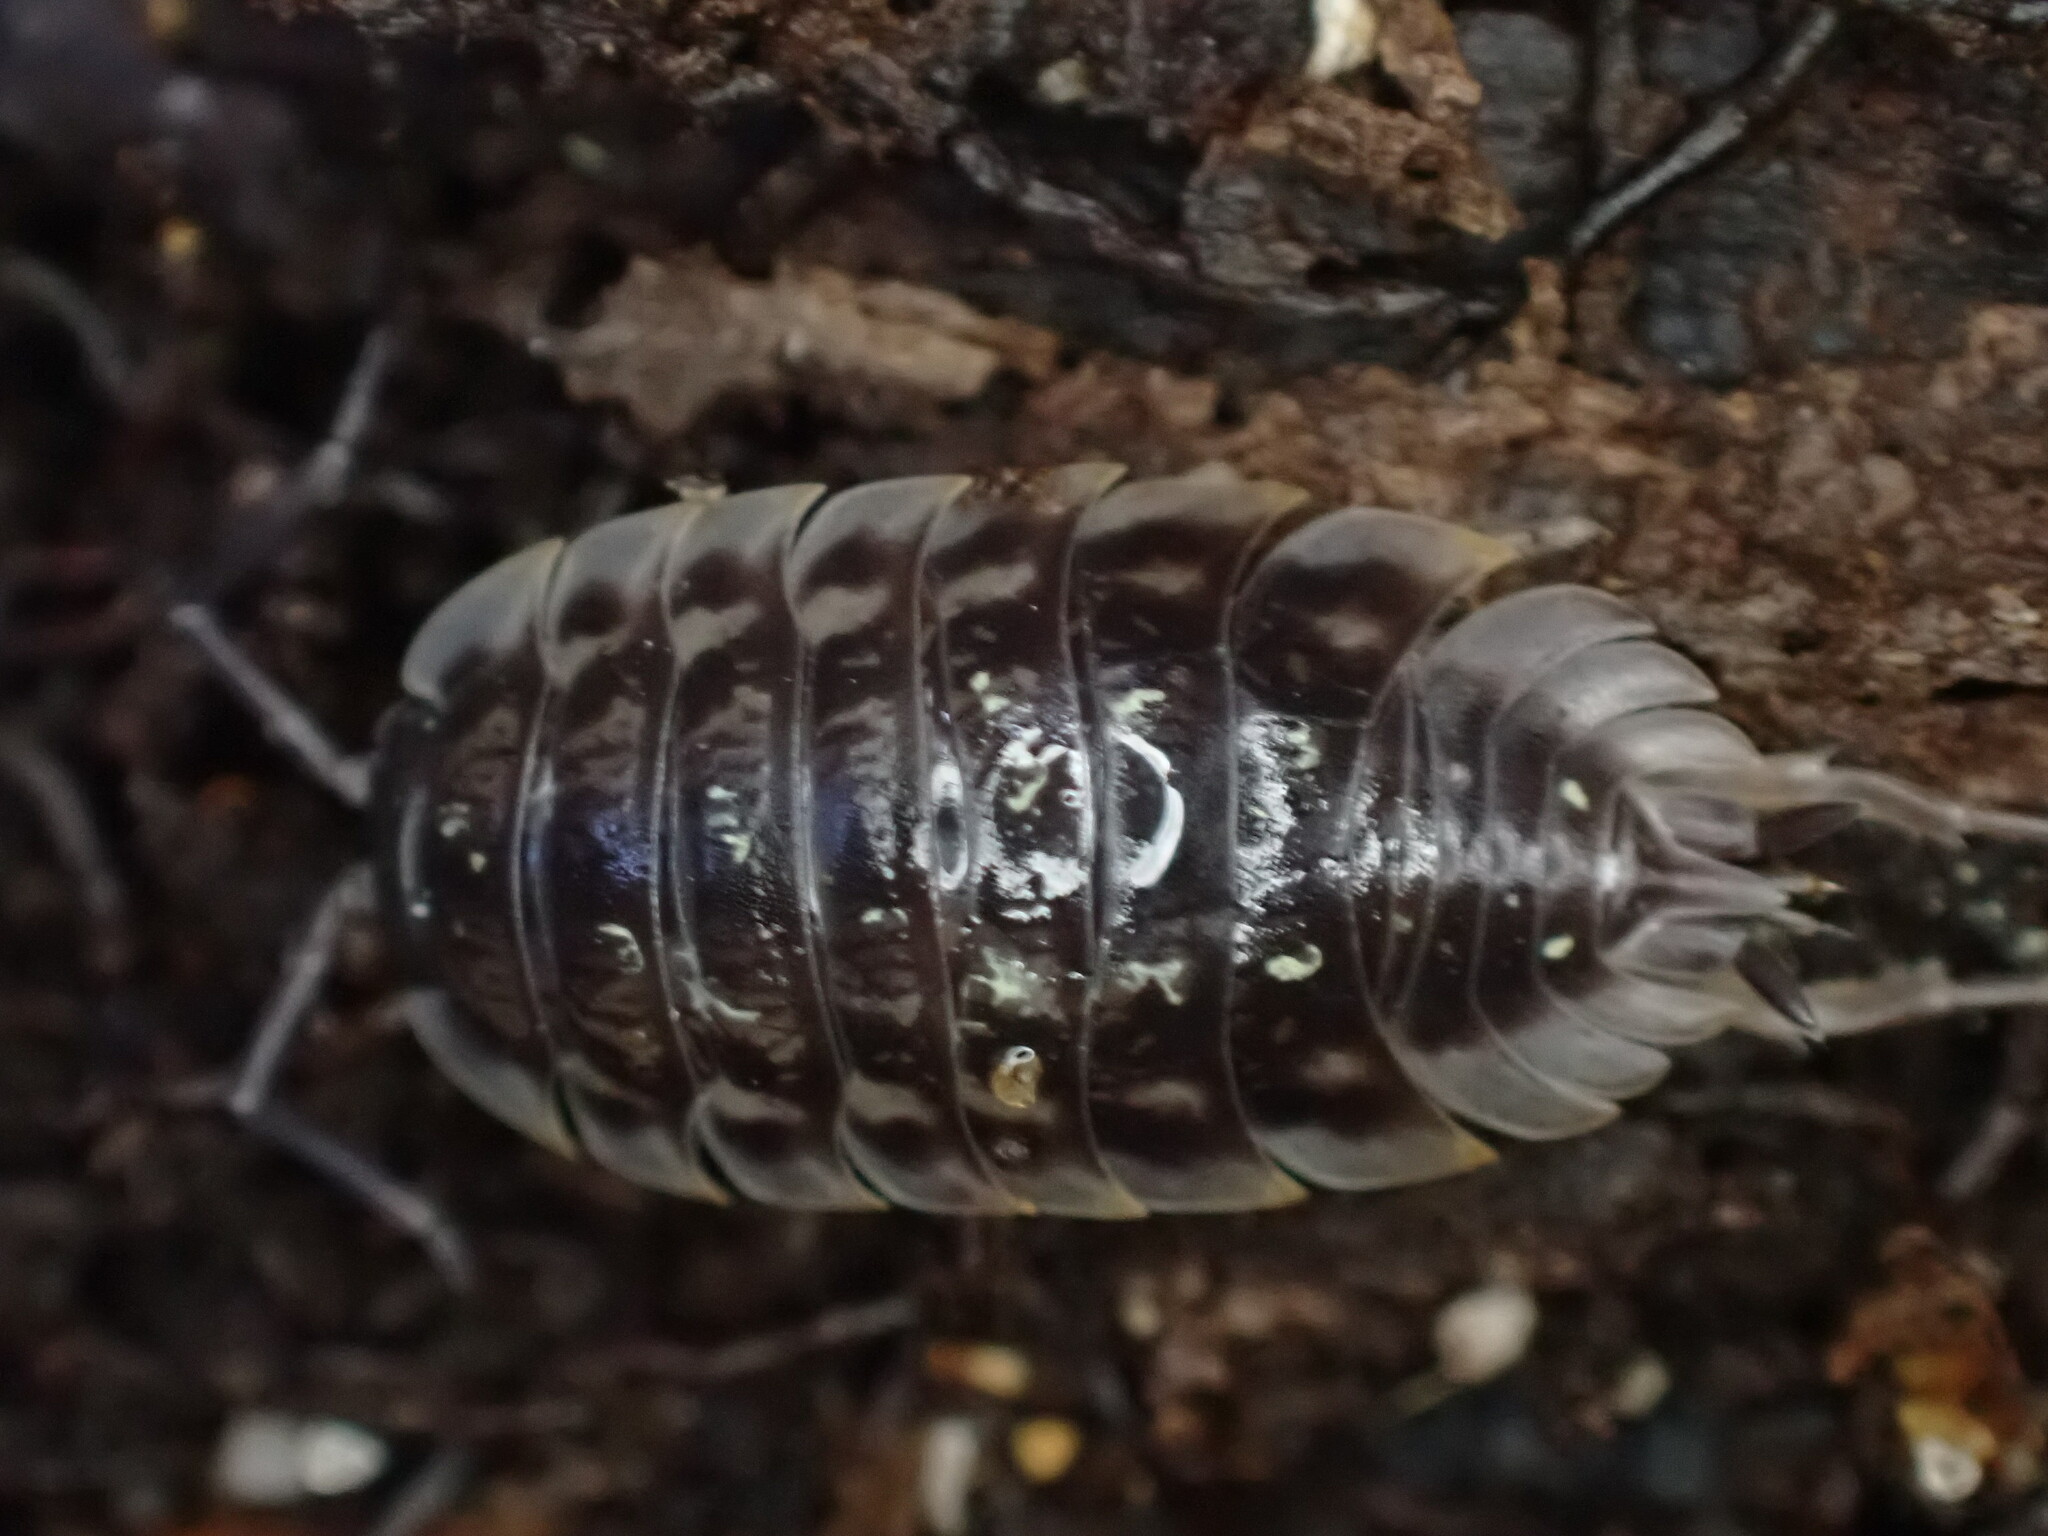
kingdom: Animalia
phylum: Arthropoda
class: Malacostraca
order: Isopoda
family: Oniscidae
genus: Oniscus
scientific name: Oniscus asellus
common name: Common shiny woodlouse
